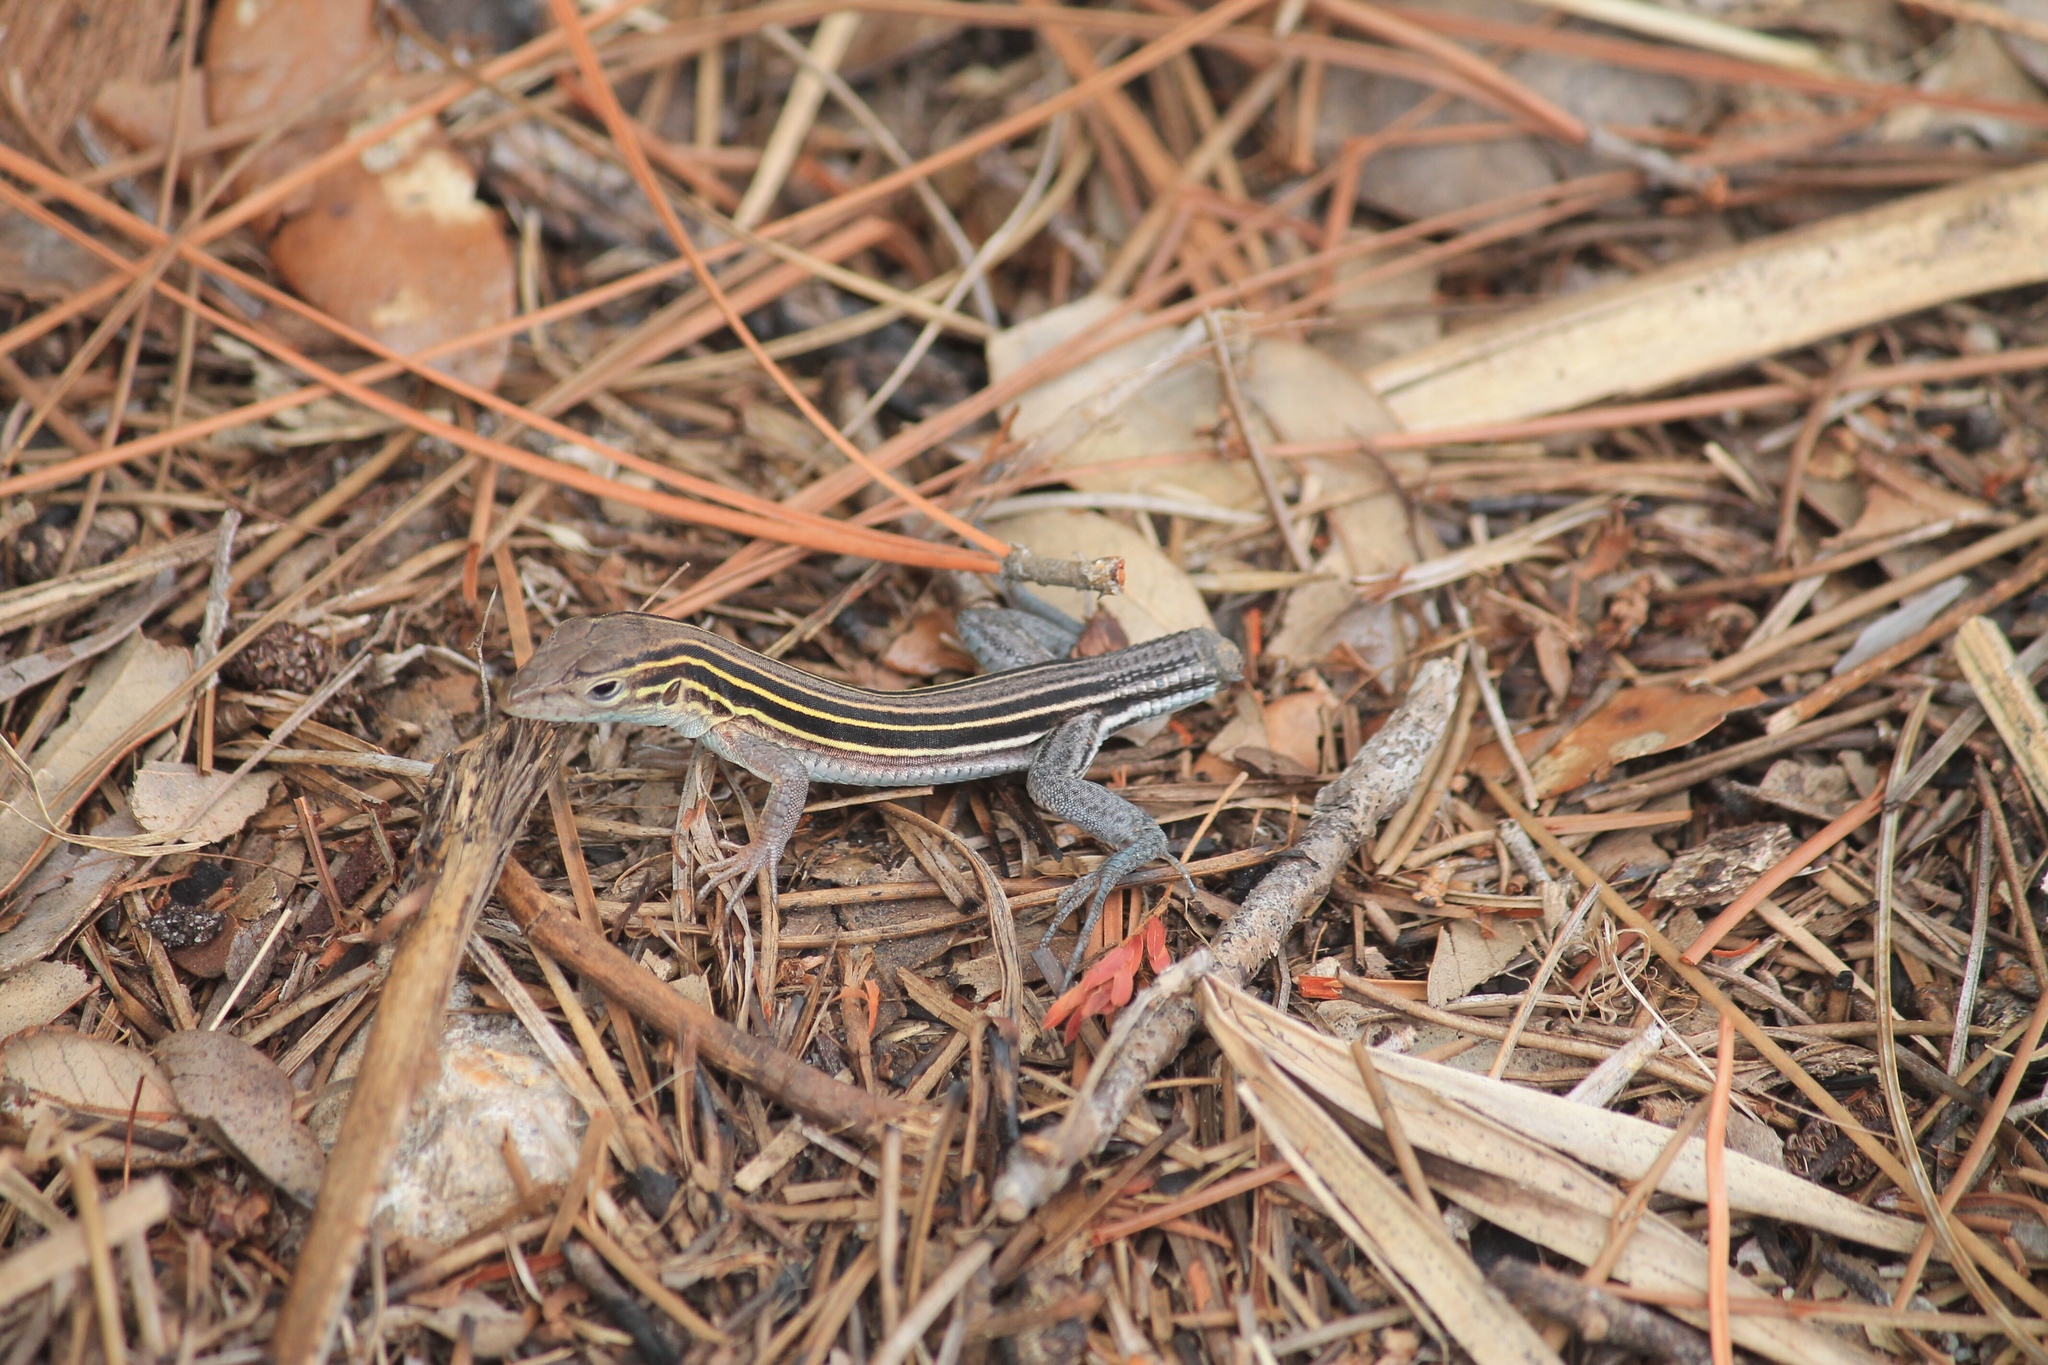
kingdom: Animalia
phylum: Chordata
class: Squamata
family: Teiidae
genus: Aspidoscelis
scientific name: Aspidoscelis sexlineatus
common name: Six-lined racerunner
